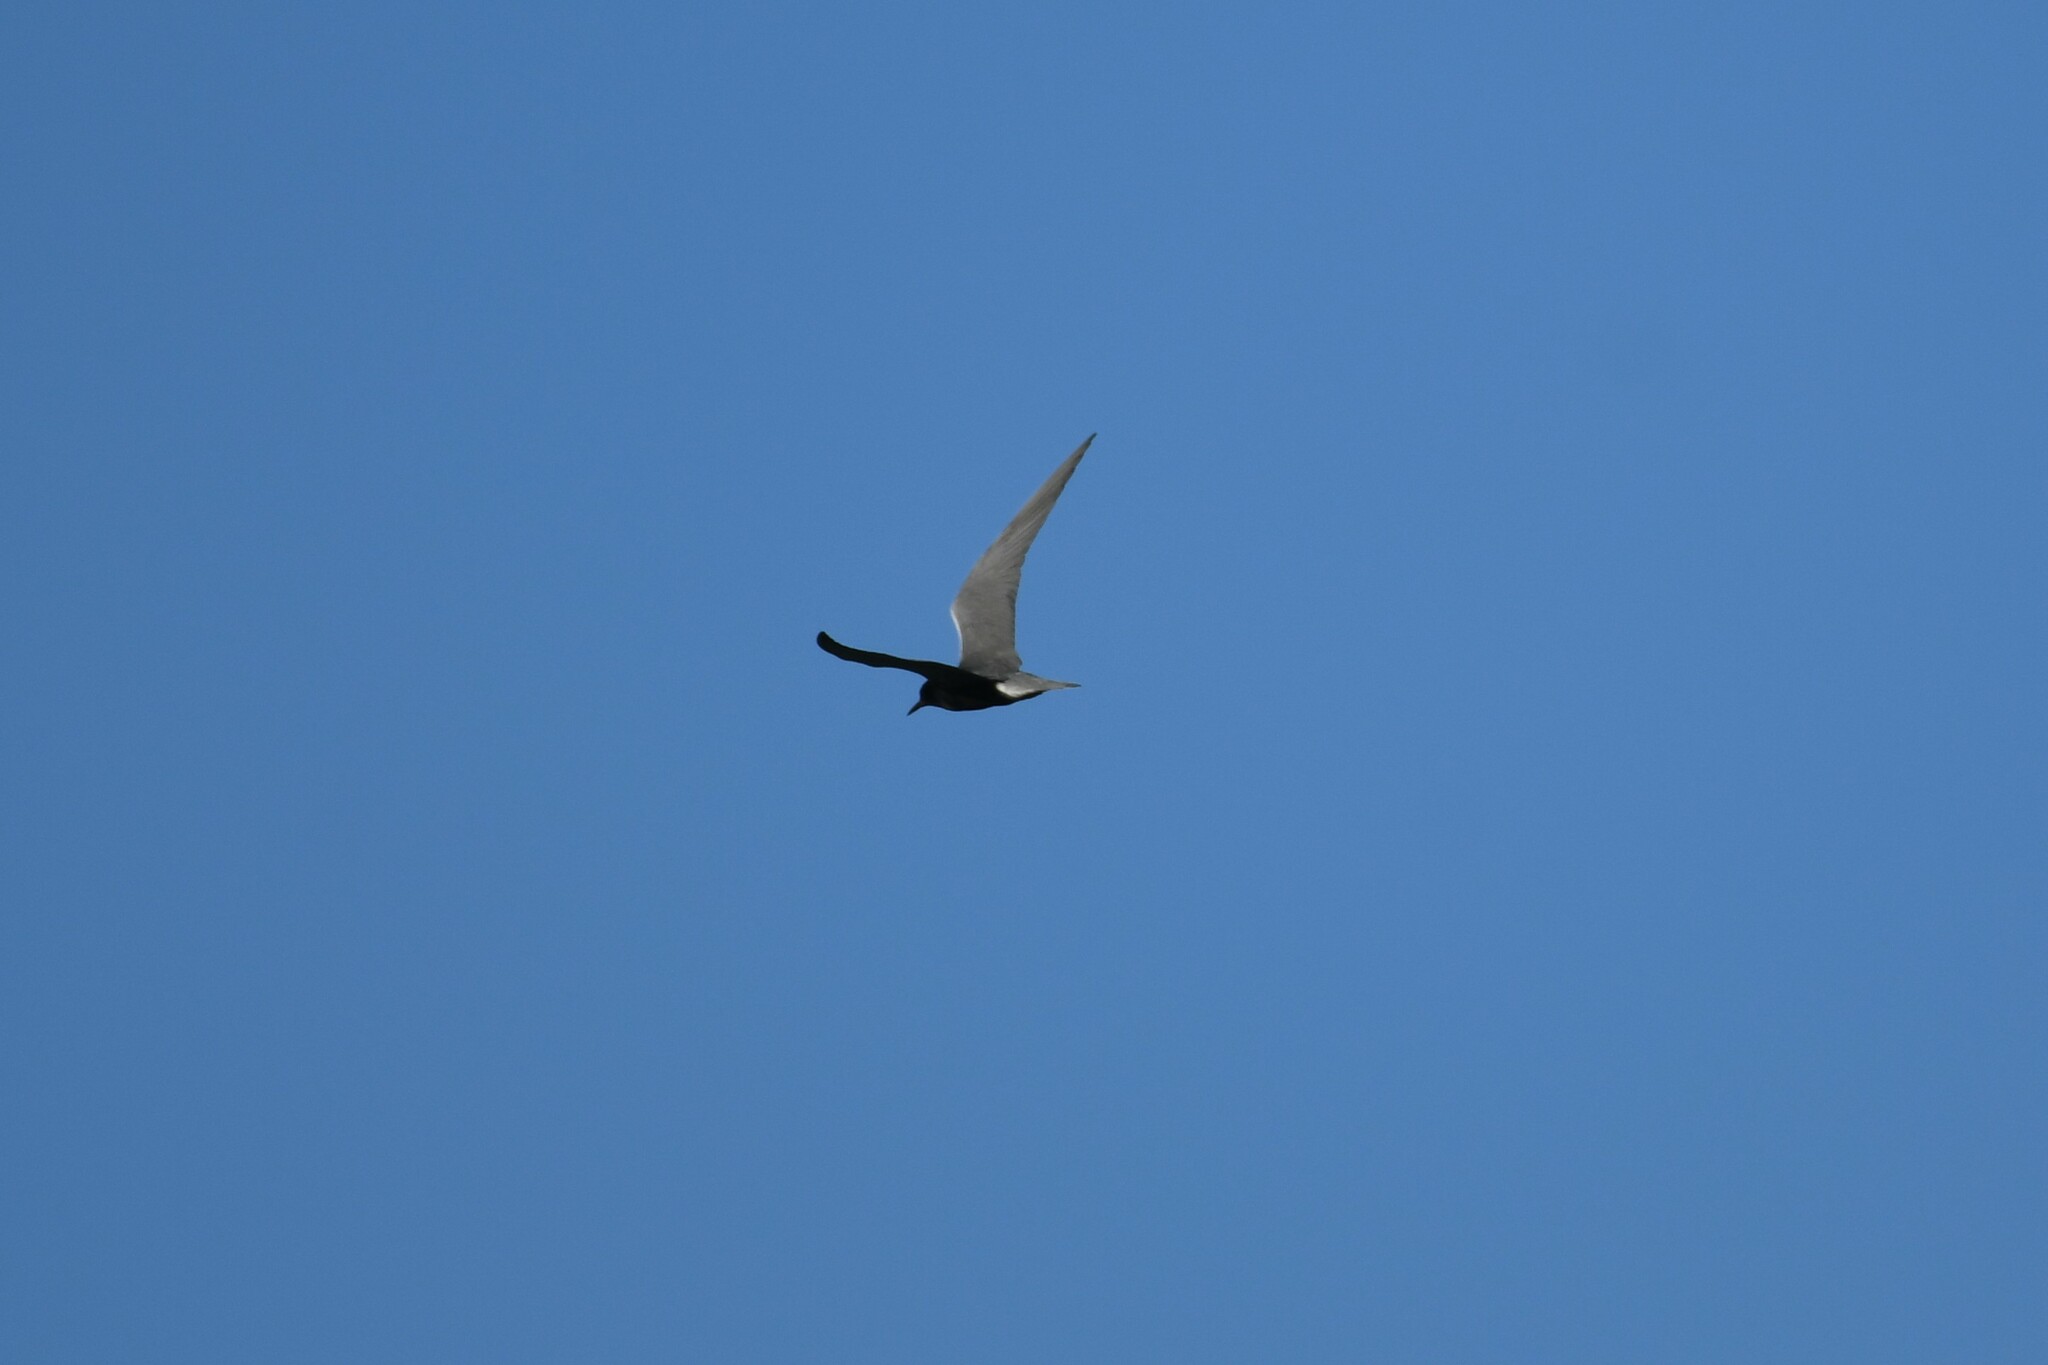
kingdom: Animalia
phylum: Chordata
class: Aves
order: Charadriiformes
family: Laridae
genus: Chlidonias
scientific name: Chlidonias niger
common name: Black tern
